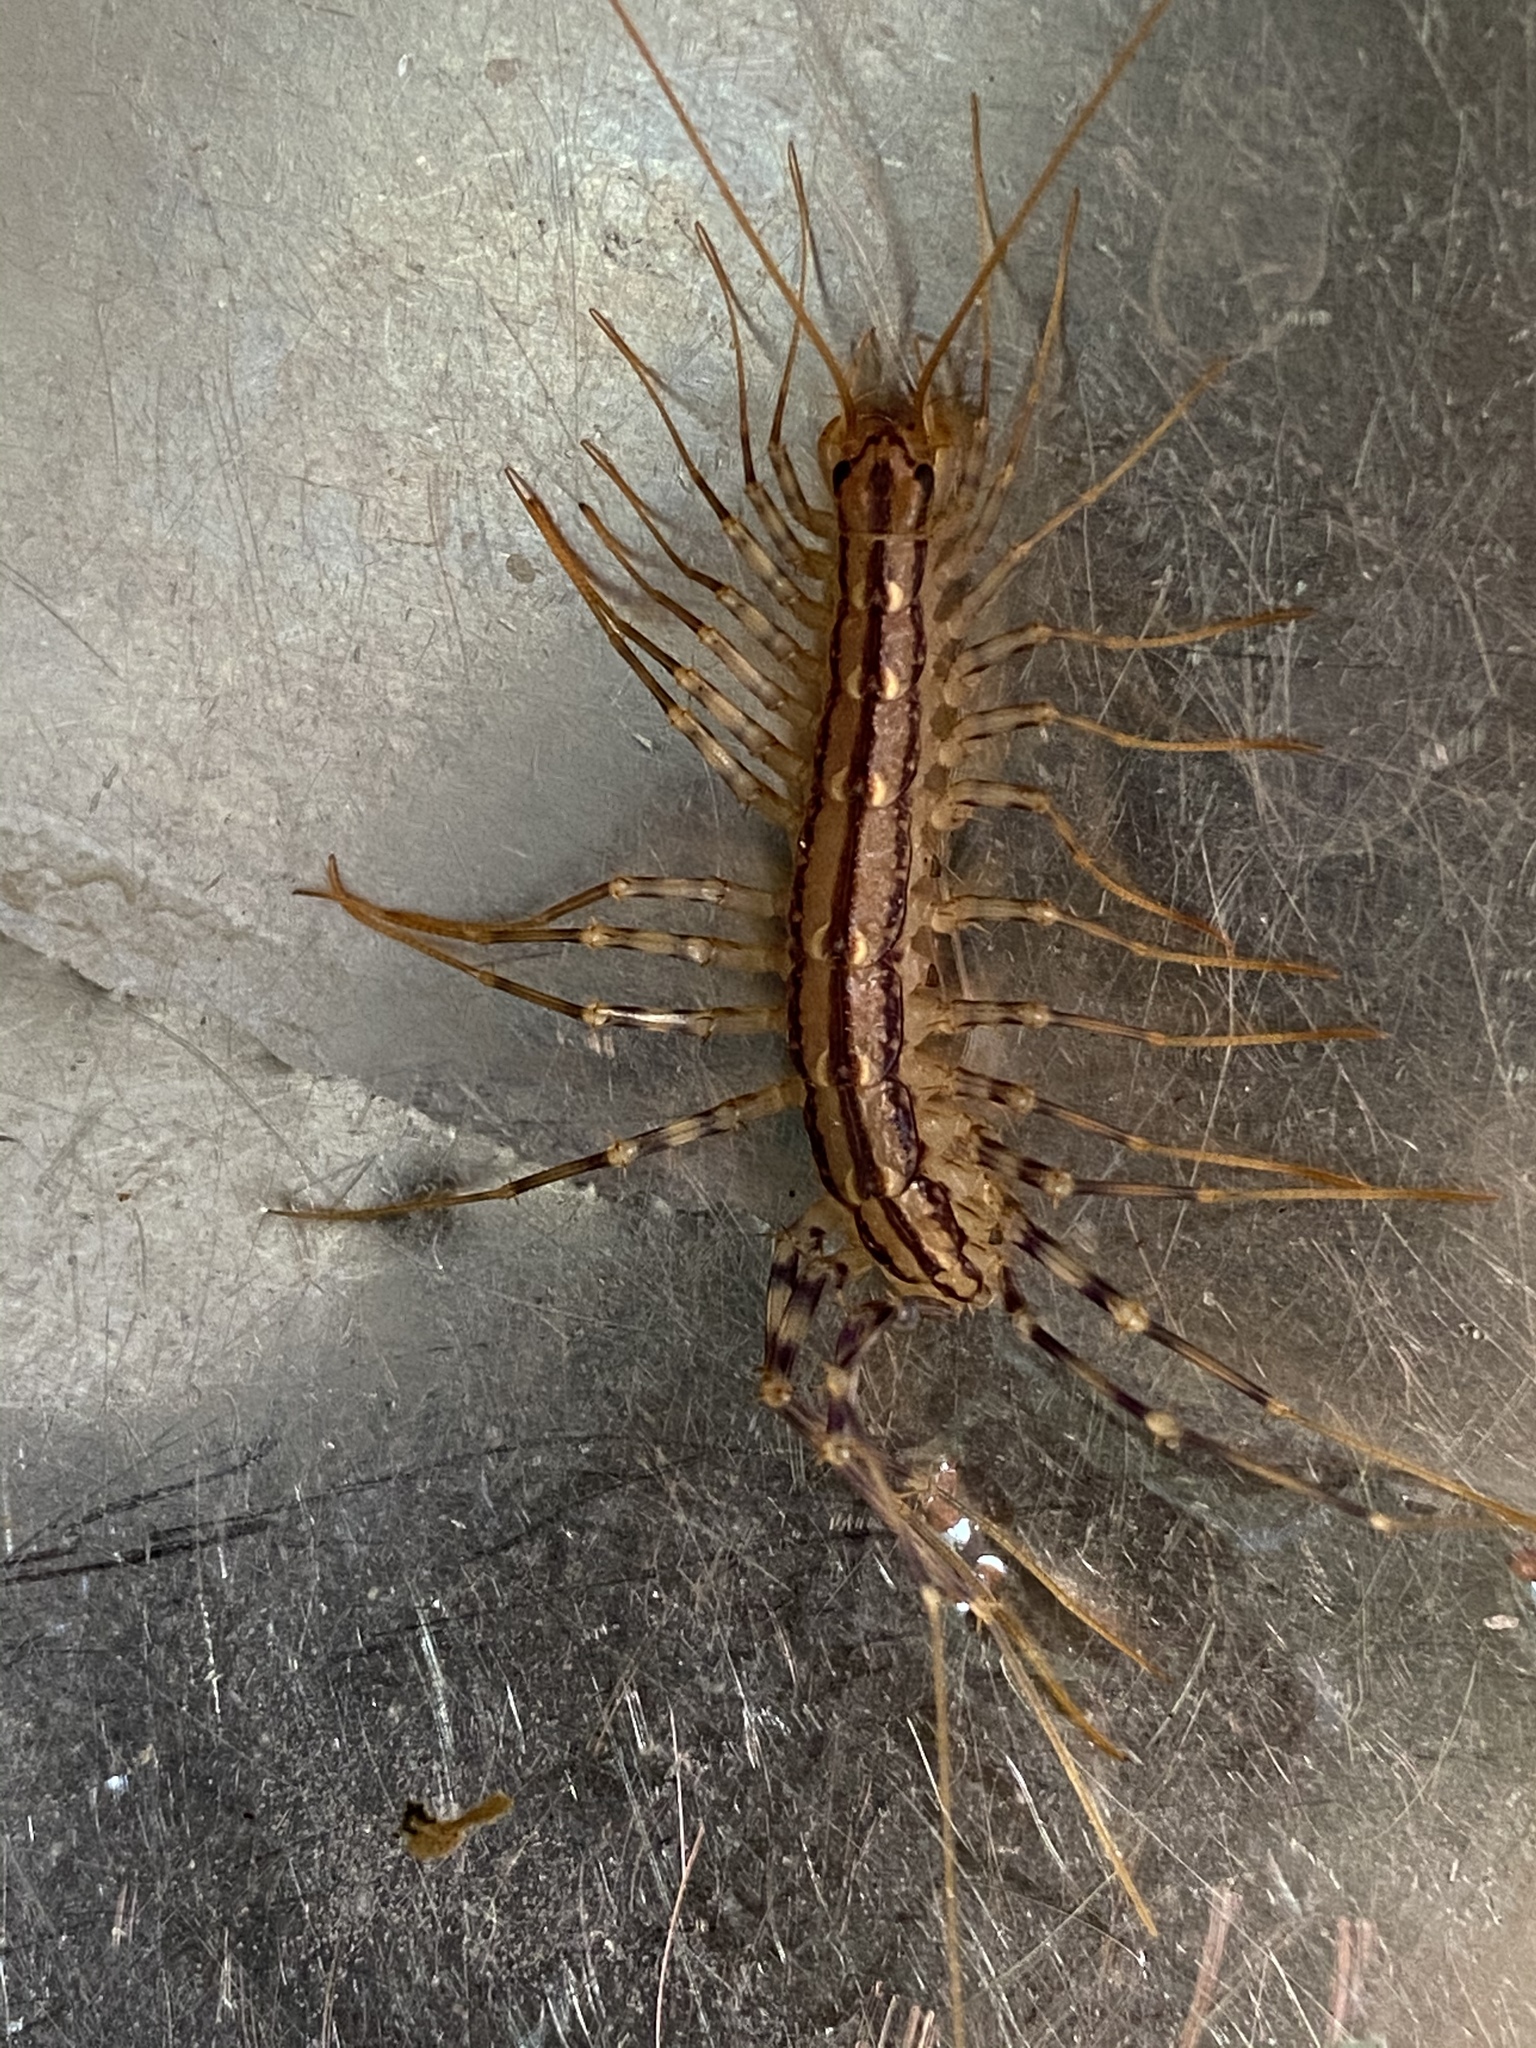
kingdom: Animalia
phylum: Arthropoda
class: Chilopoda
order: Scutigeromorpha
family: Scutigeridae
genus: Scutigera
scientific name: Scutigera coleoptrata
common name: House centipede
